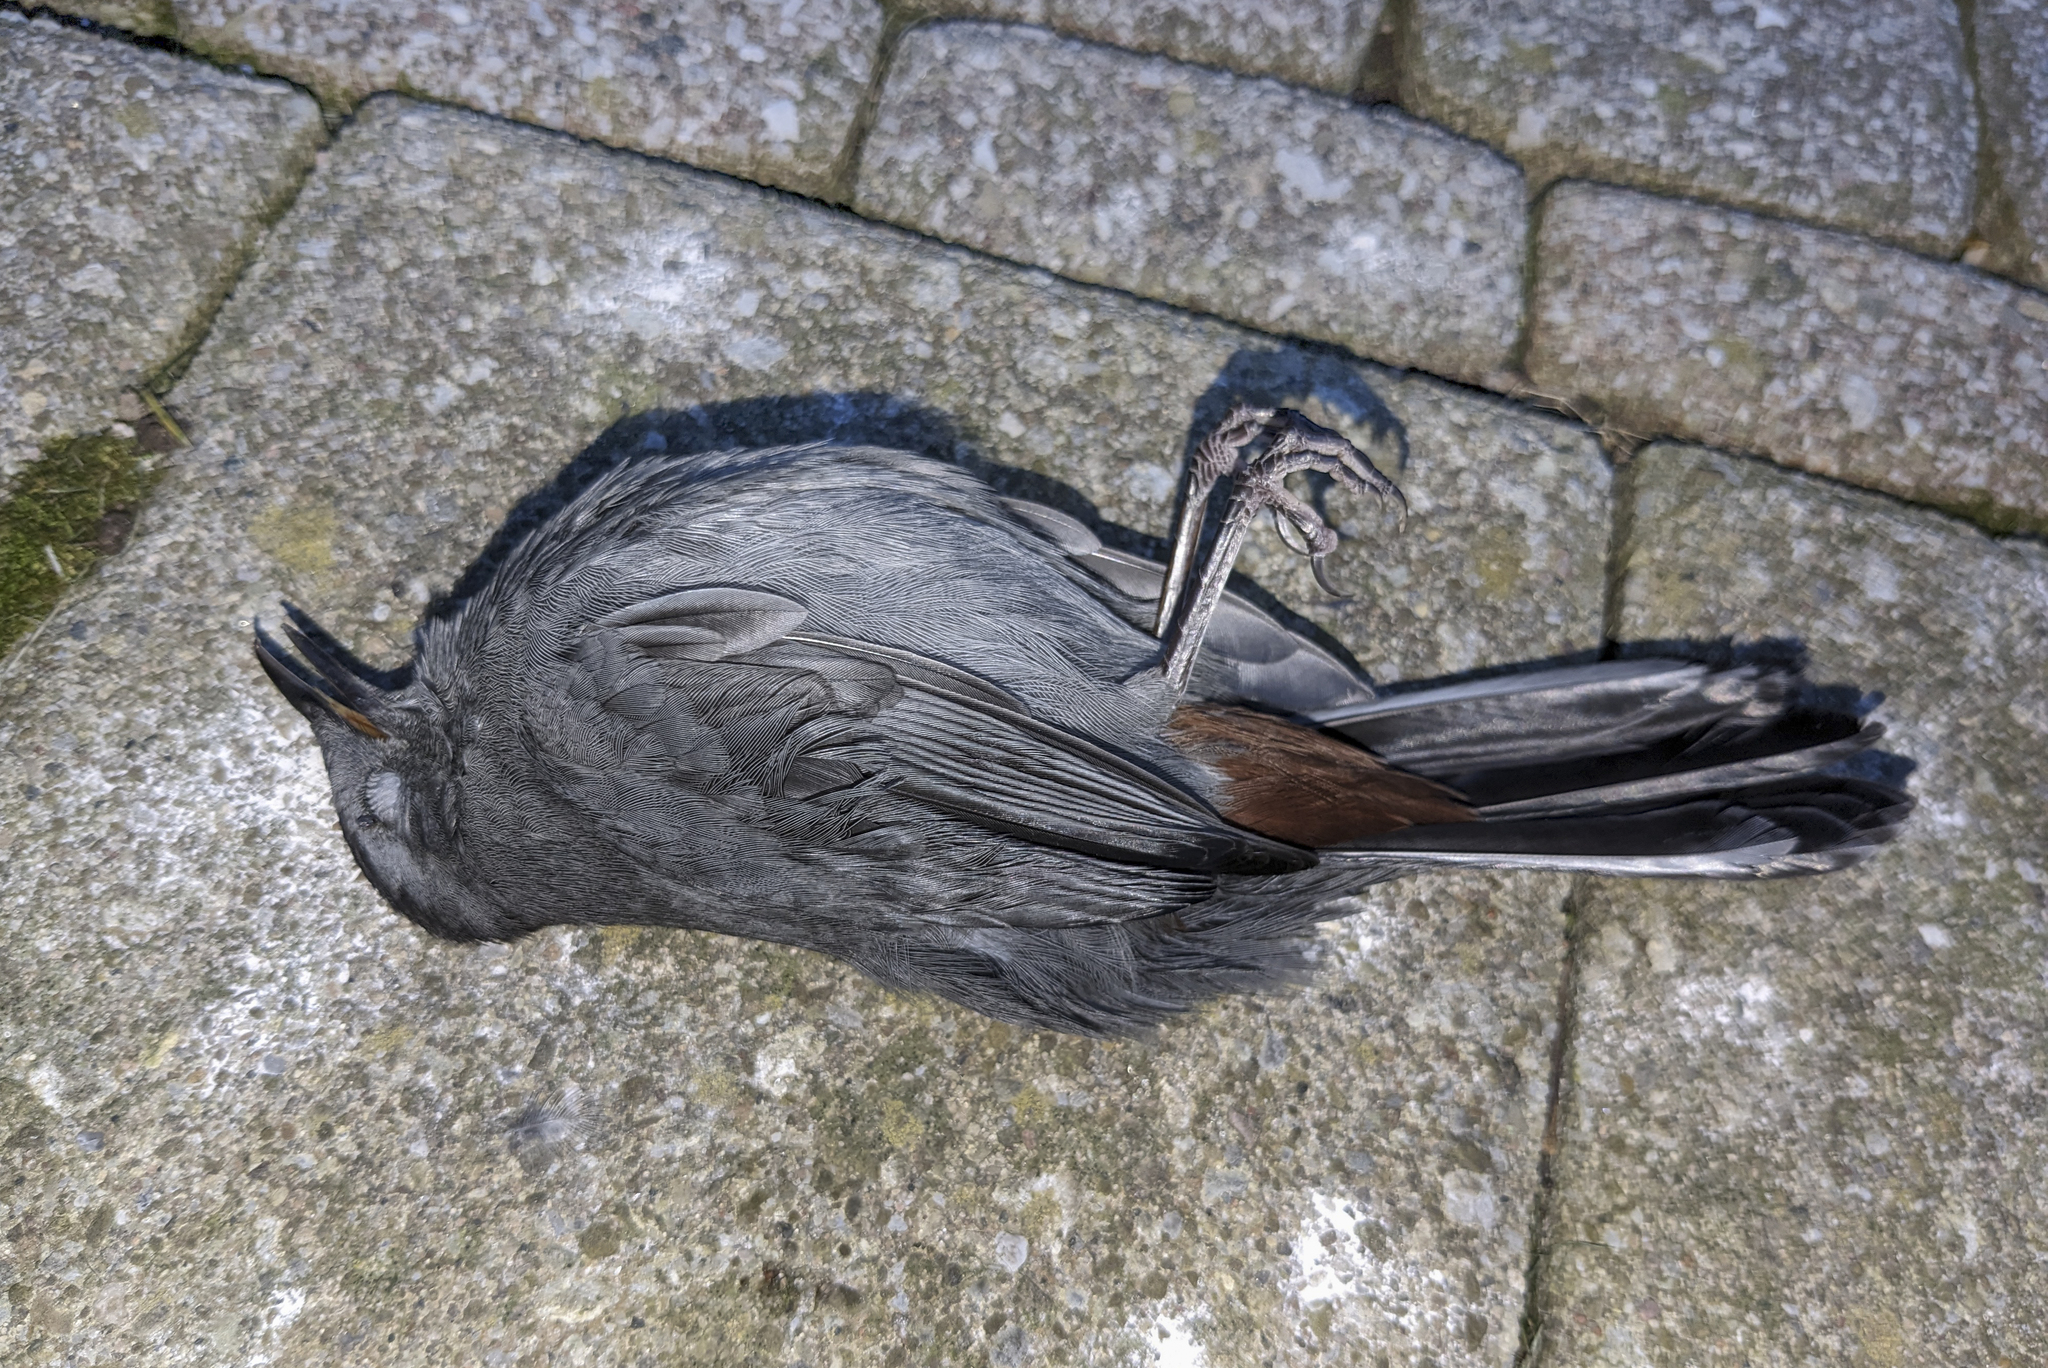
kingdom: Animalia
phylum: Chordata
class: Aves
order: Passeriformes
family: Mimidae
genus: Dumetella
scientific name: Dumetella carolinensis
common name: Gray catbird
